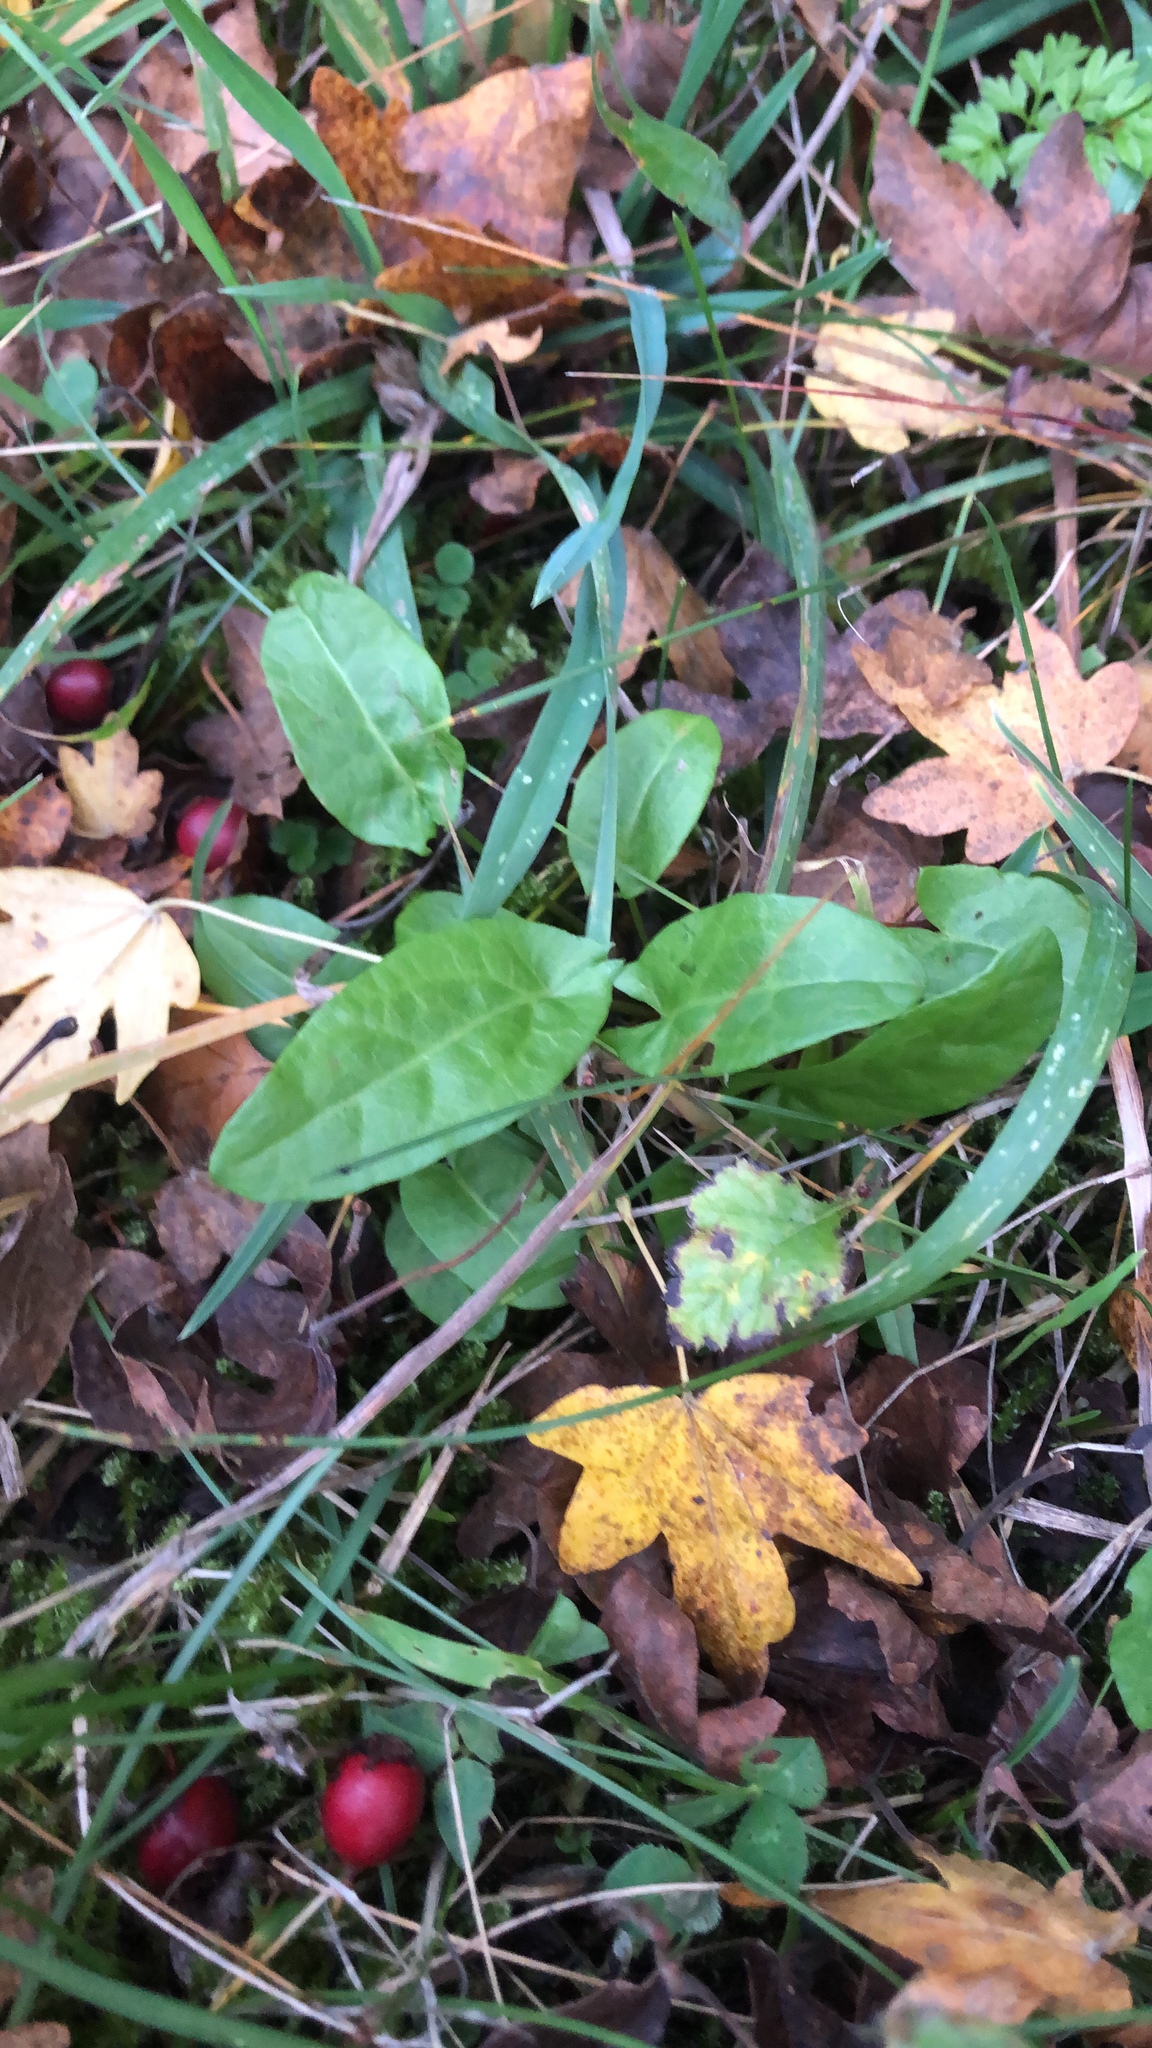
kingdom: Plantae
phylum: Tracheophyta
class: Magnoliopsida
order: Caryophyllales
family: Polygonaceae
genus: Rumex
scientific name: Rumex acetosa
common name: Garden sorrel
